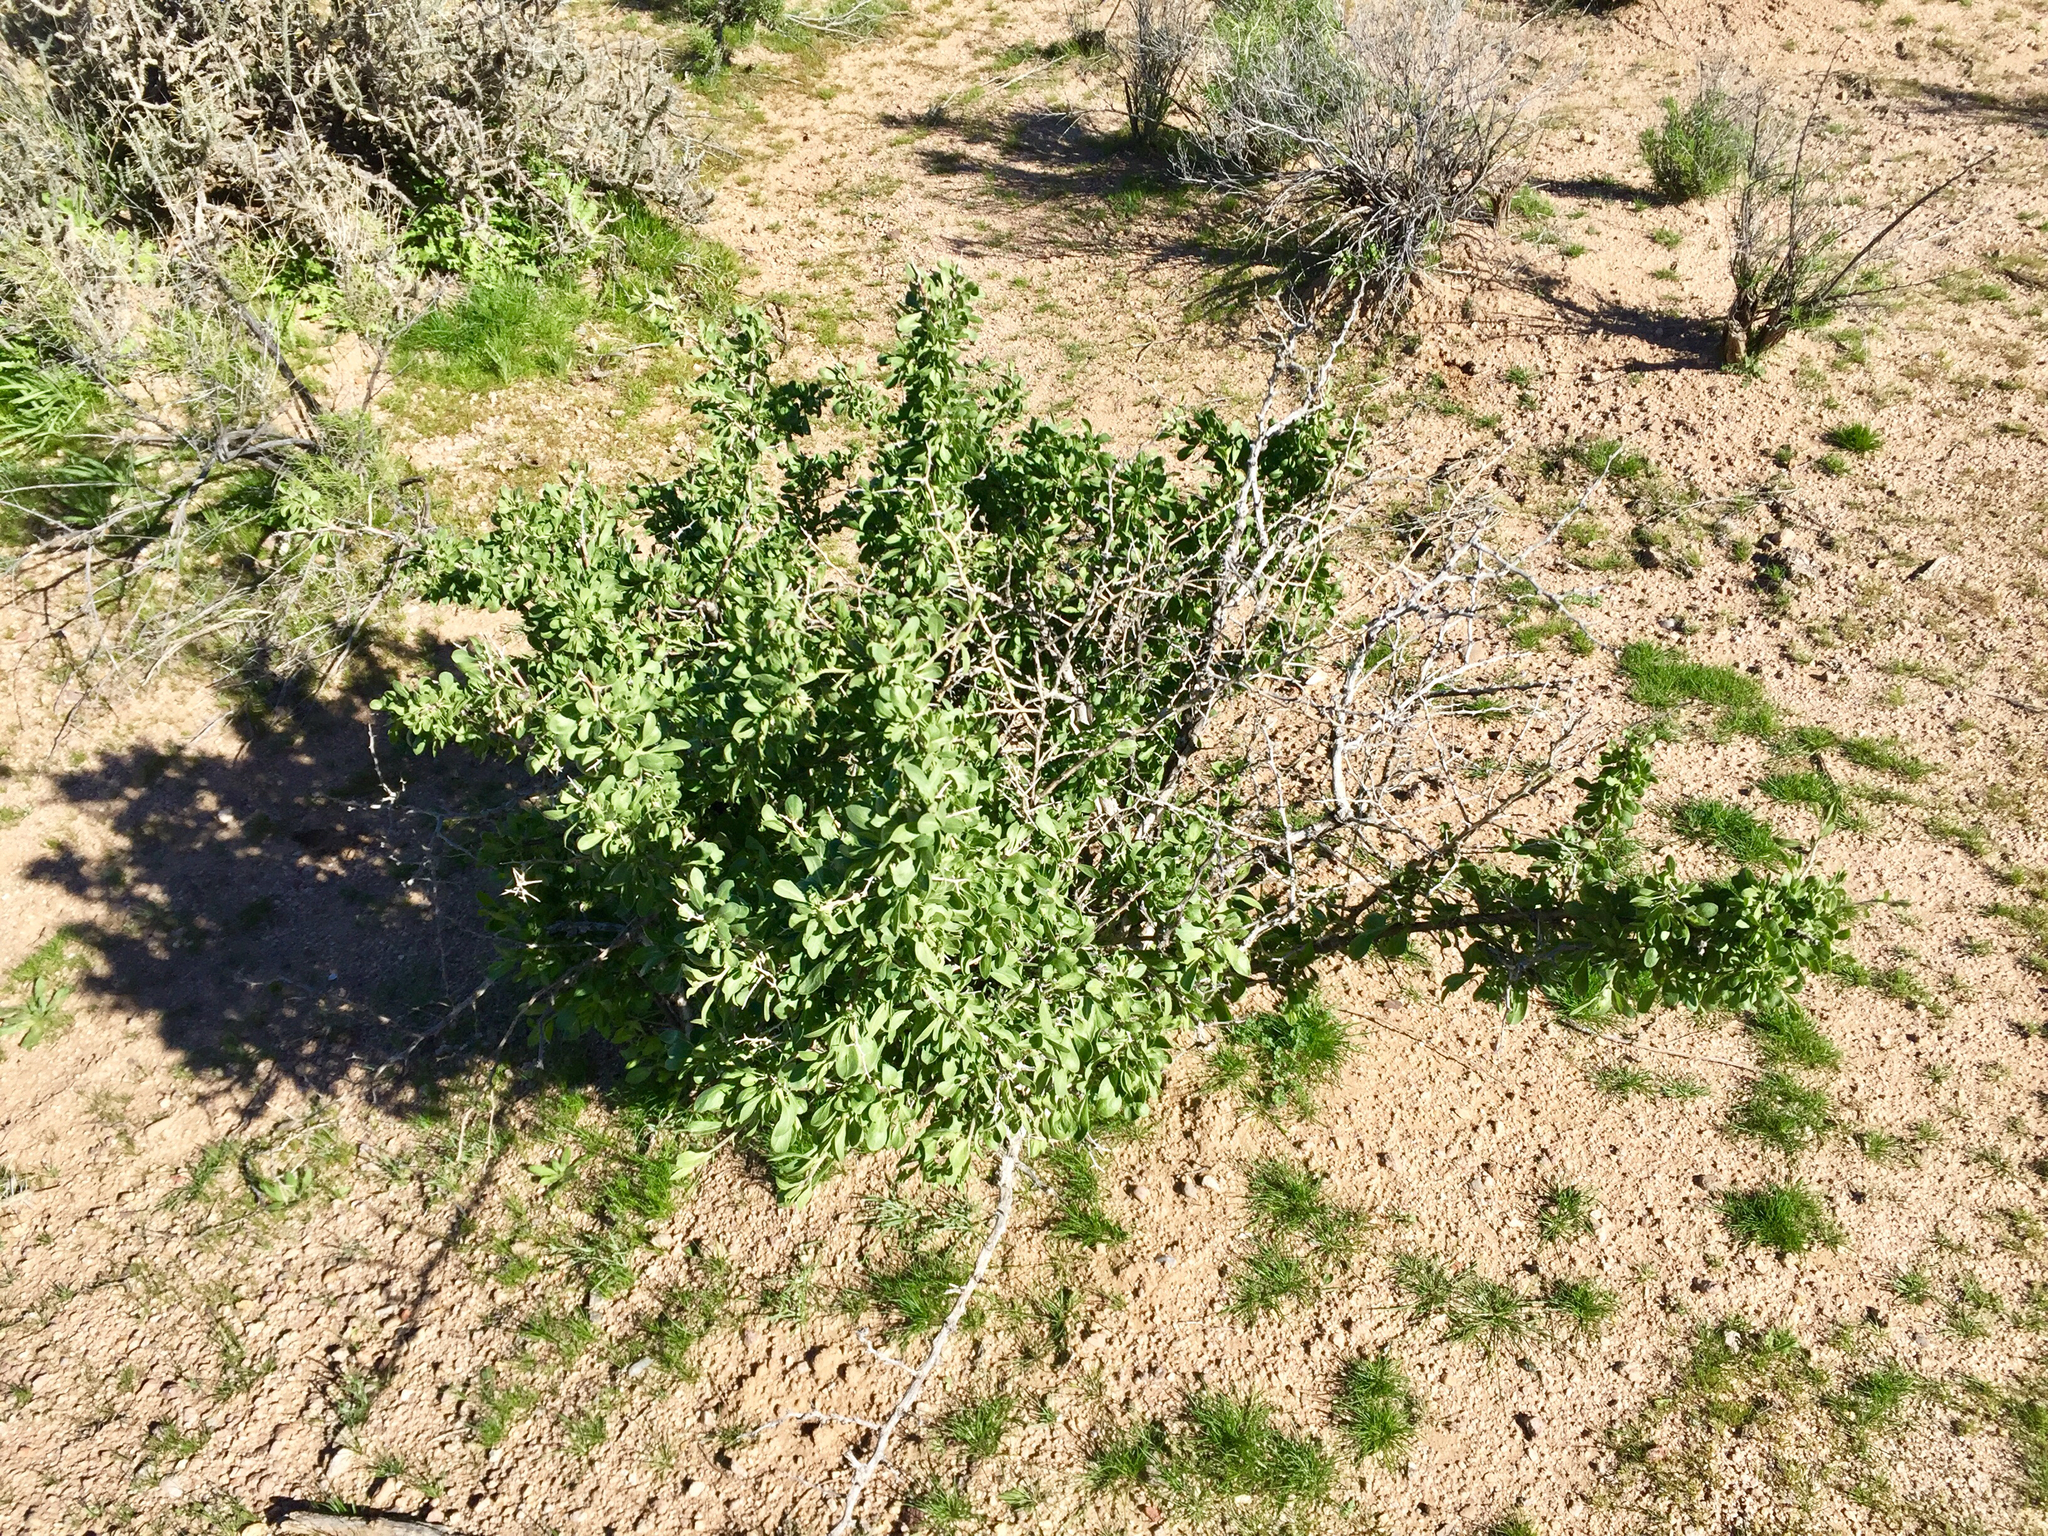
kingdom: Plantae
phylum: Tracheophyta
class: Magnoliopsida
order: Ericales
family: Fouquieriaceae
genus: Fouquieria
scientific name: Fouquieria splendens
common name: Vine-cactus
